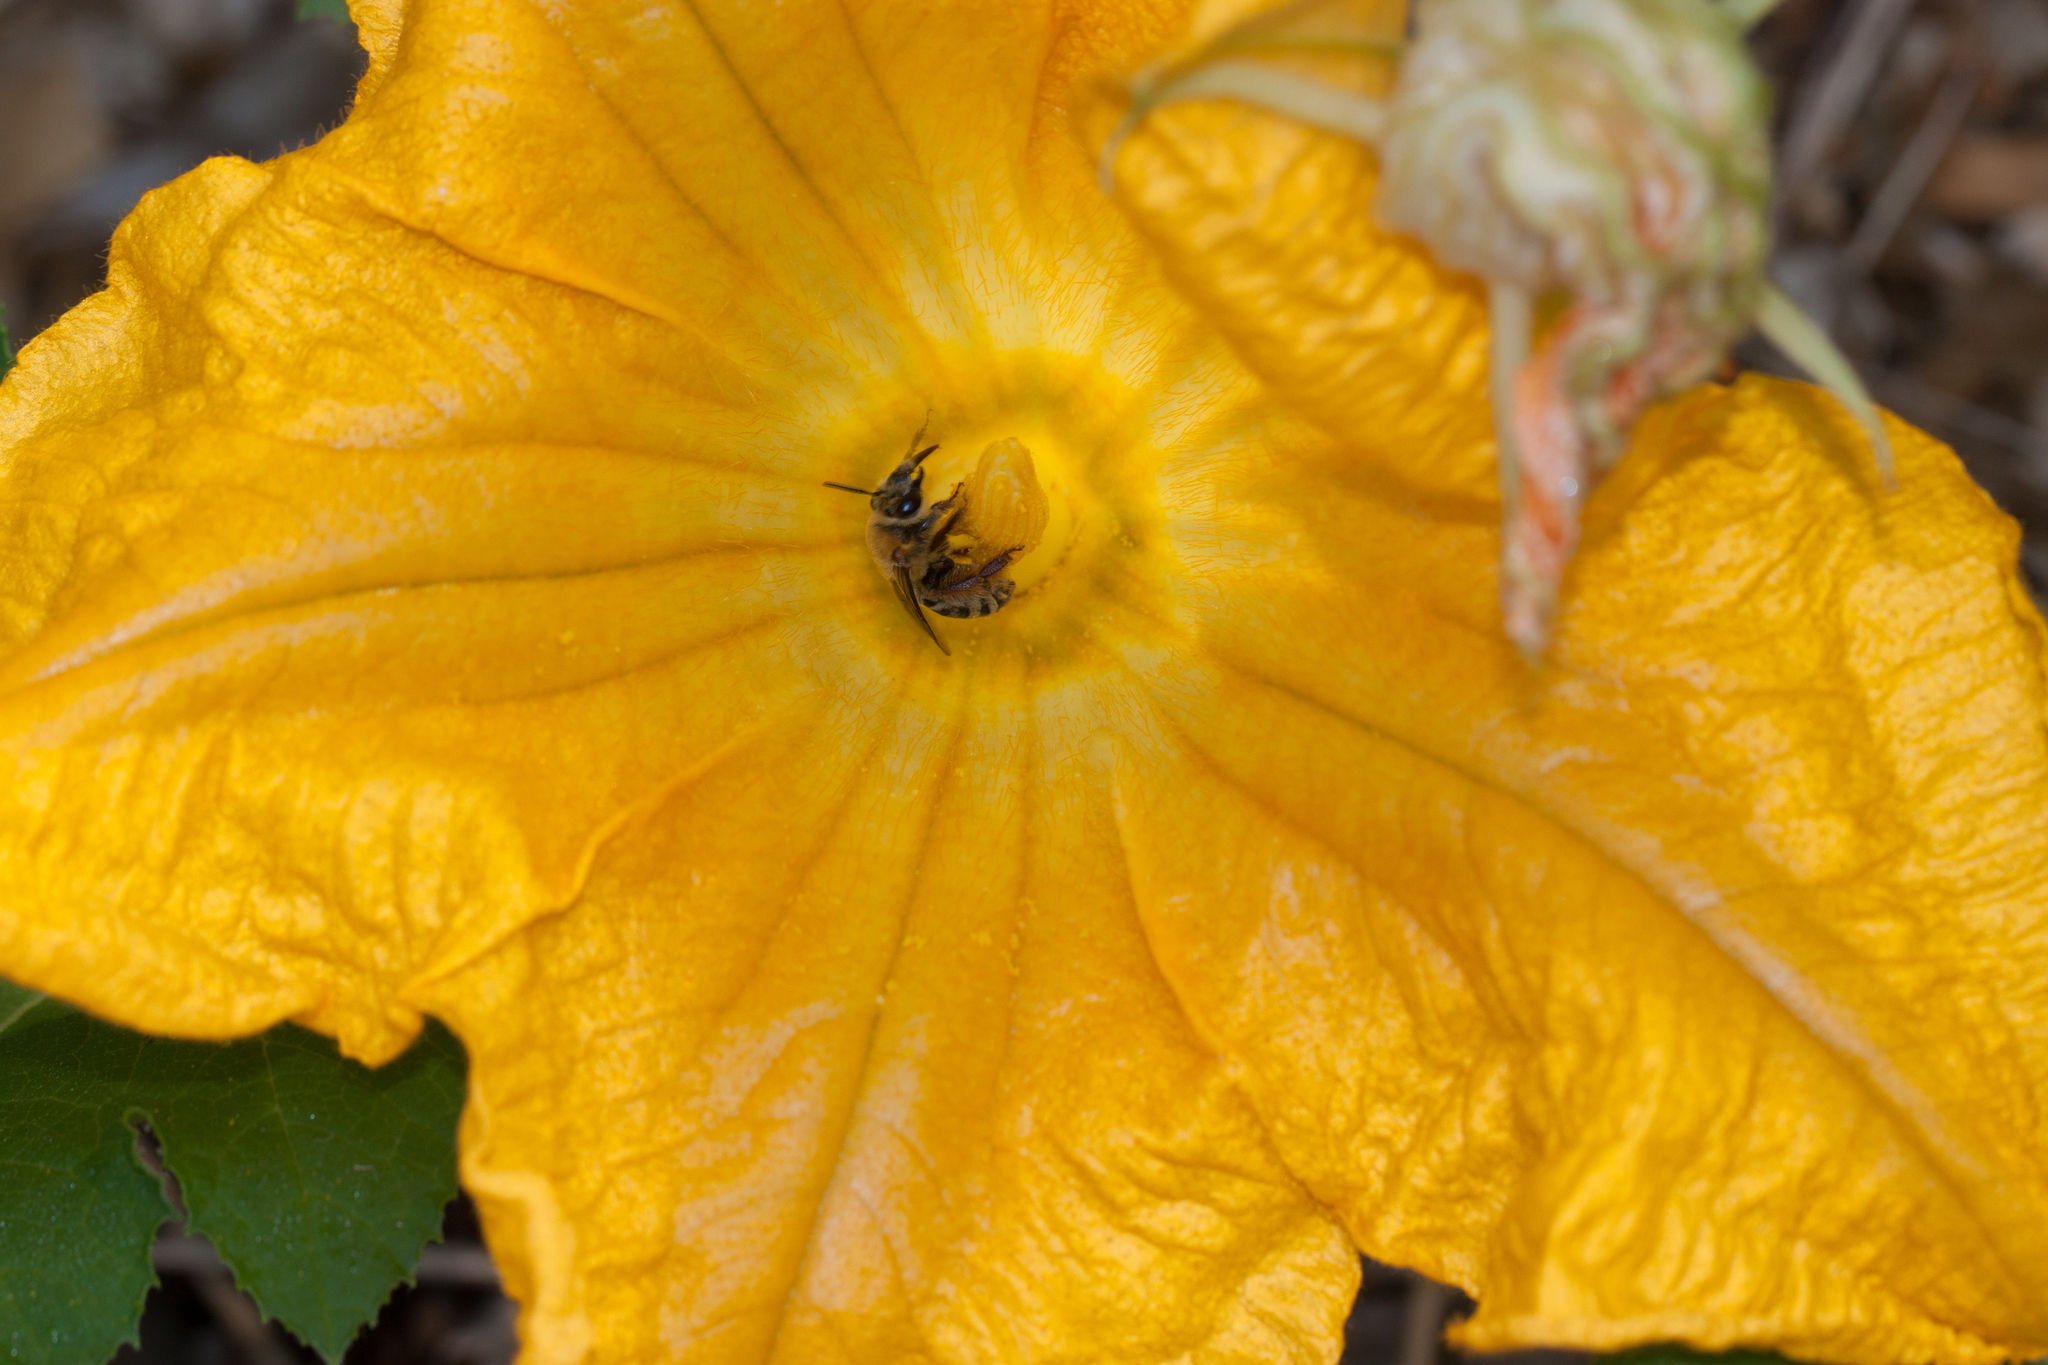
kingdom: Animalia
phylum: Arthropoda
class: Insecta
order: Hymenoptera
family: Apidae
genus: Peponapis
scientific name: Peponapis pruinosa
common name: Pruinose squash bee
